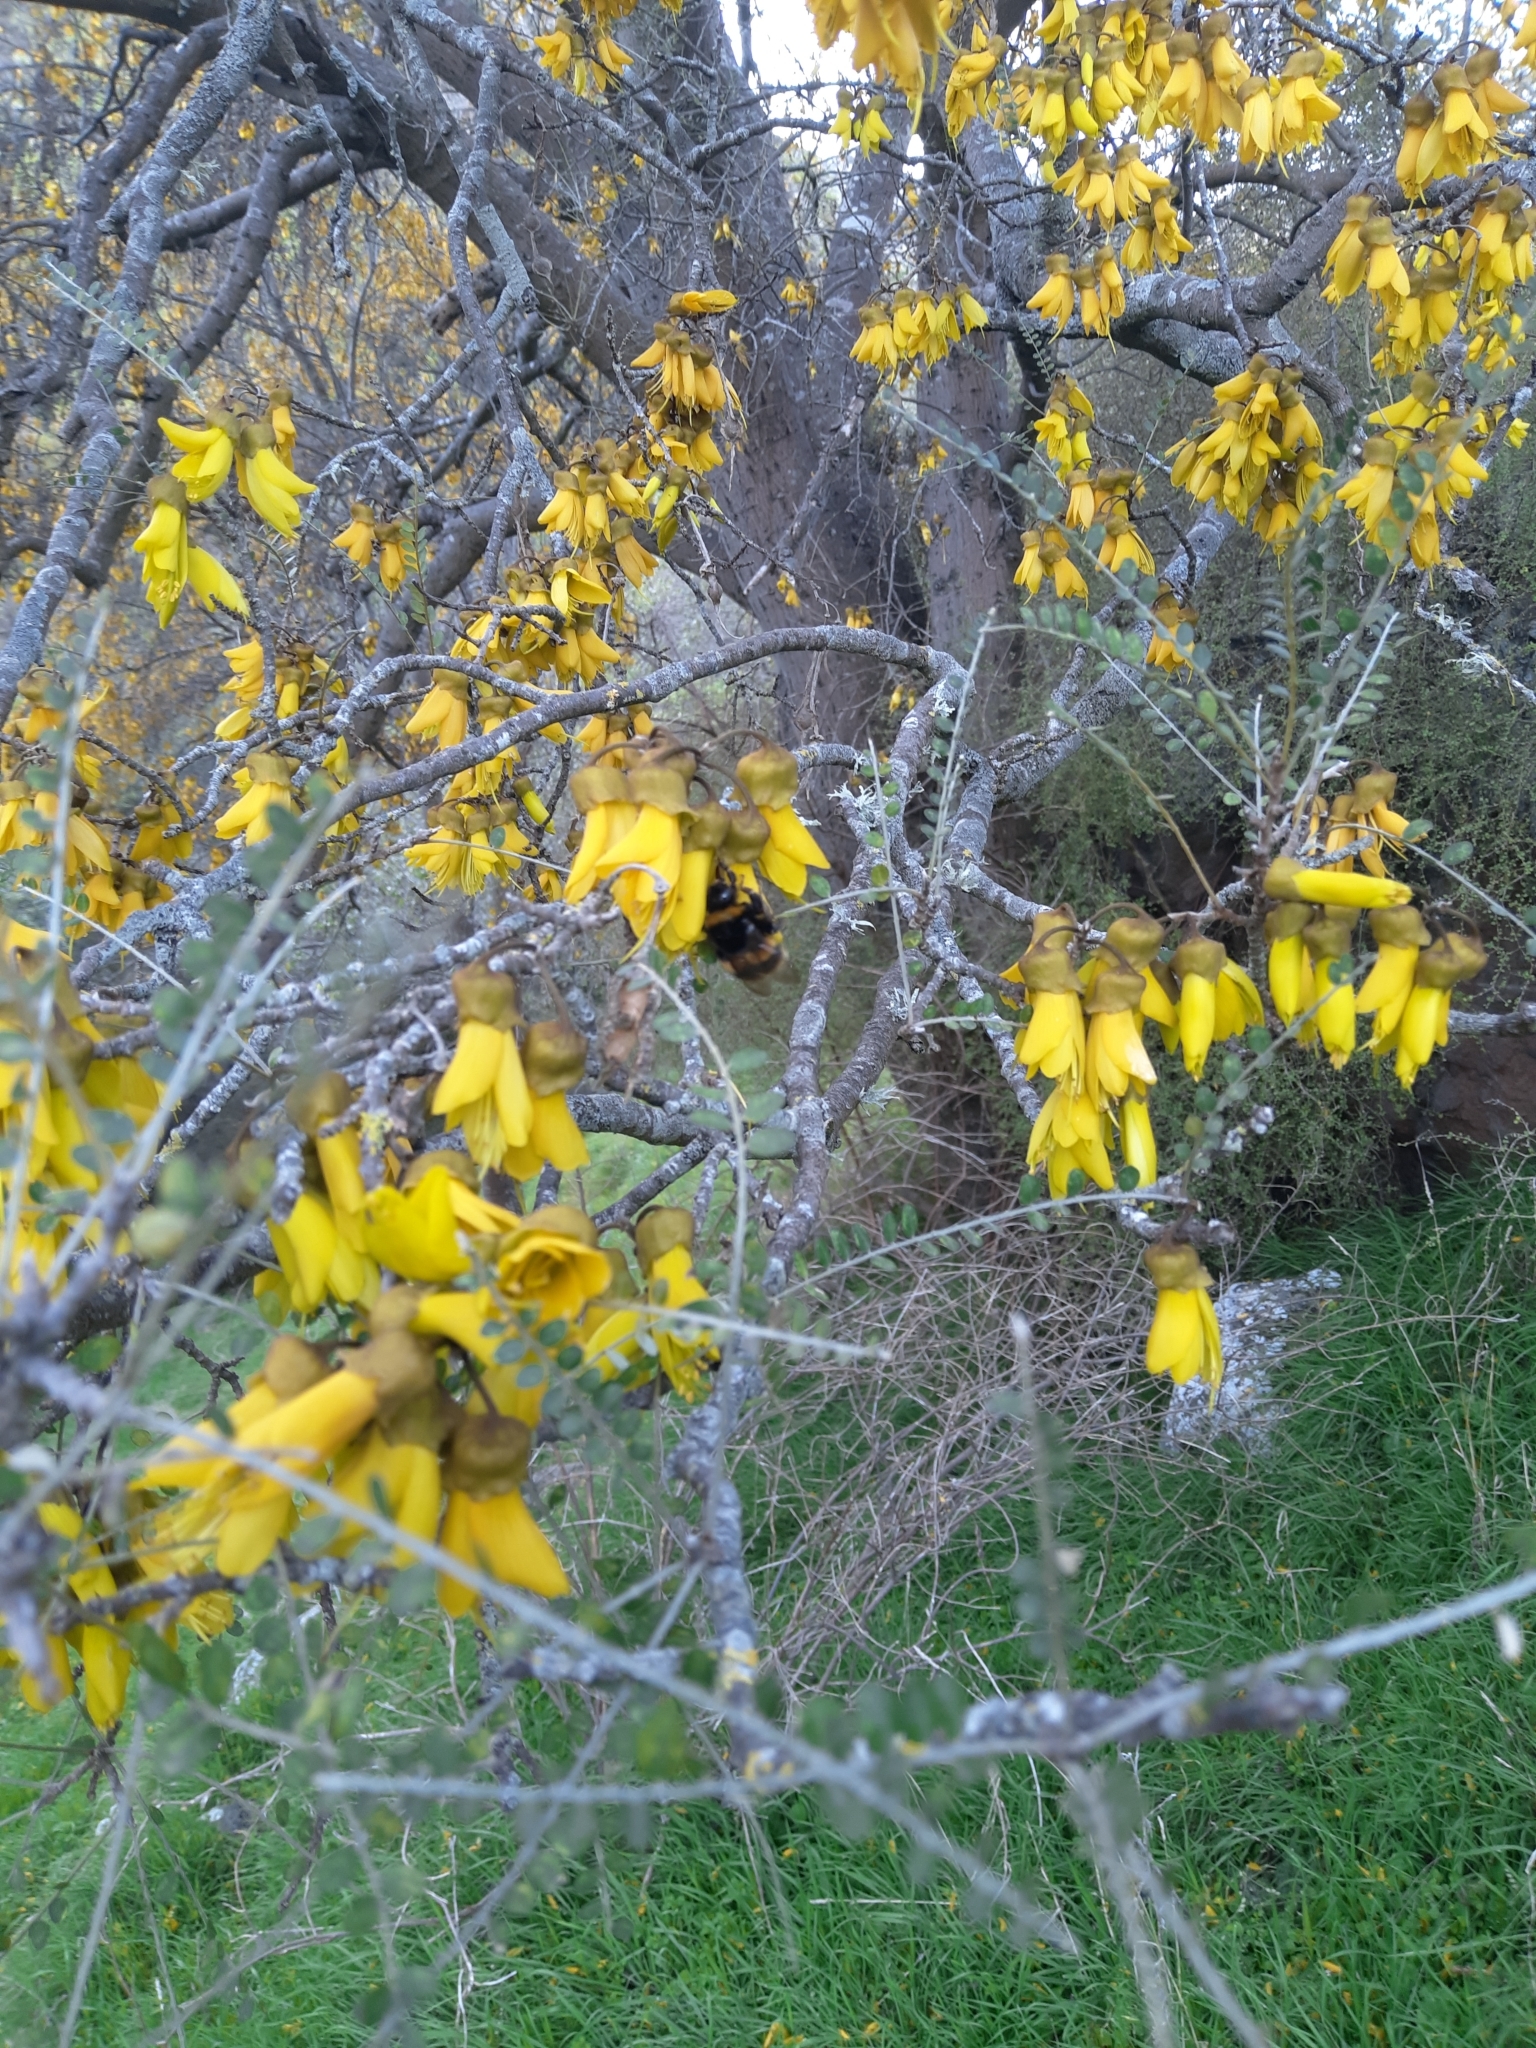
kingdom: Plantae
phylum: Tracheophyta
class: Magnoliopsida
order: Fabales
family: Fabaceae
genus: Sophora
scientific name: Sophora microphylla
